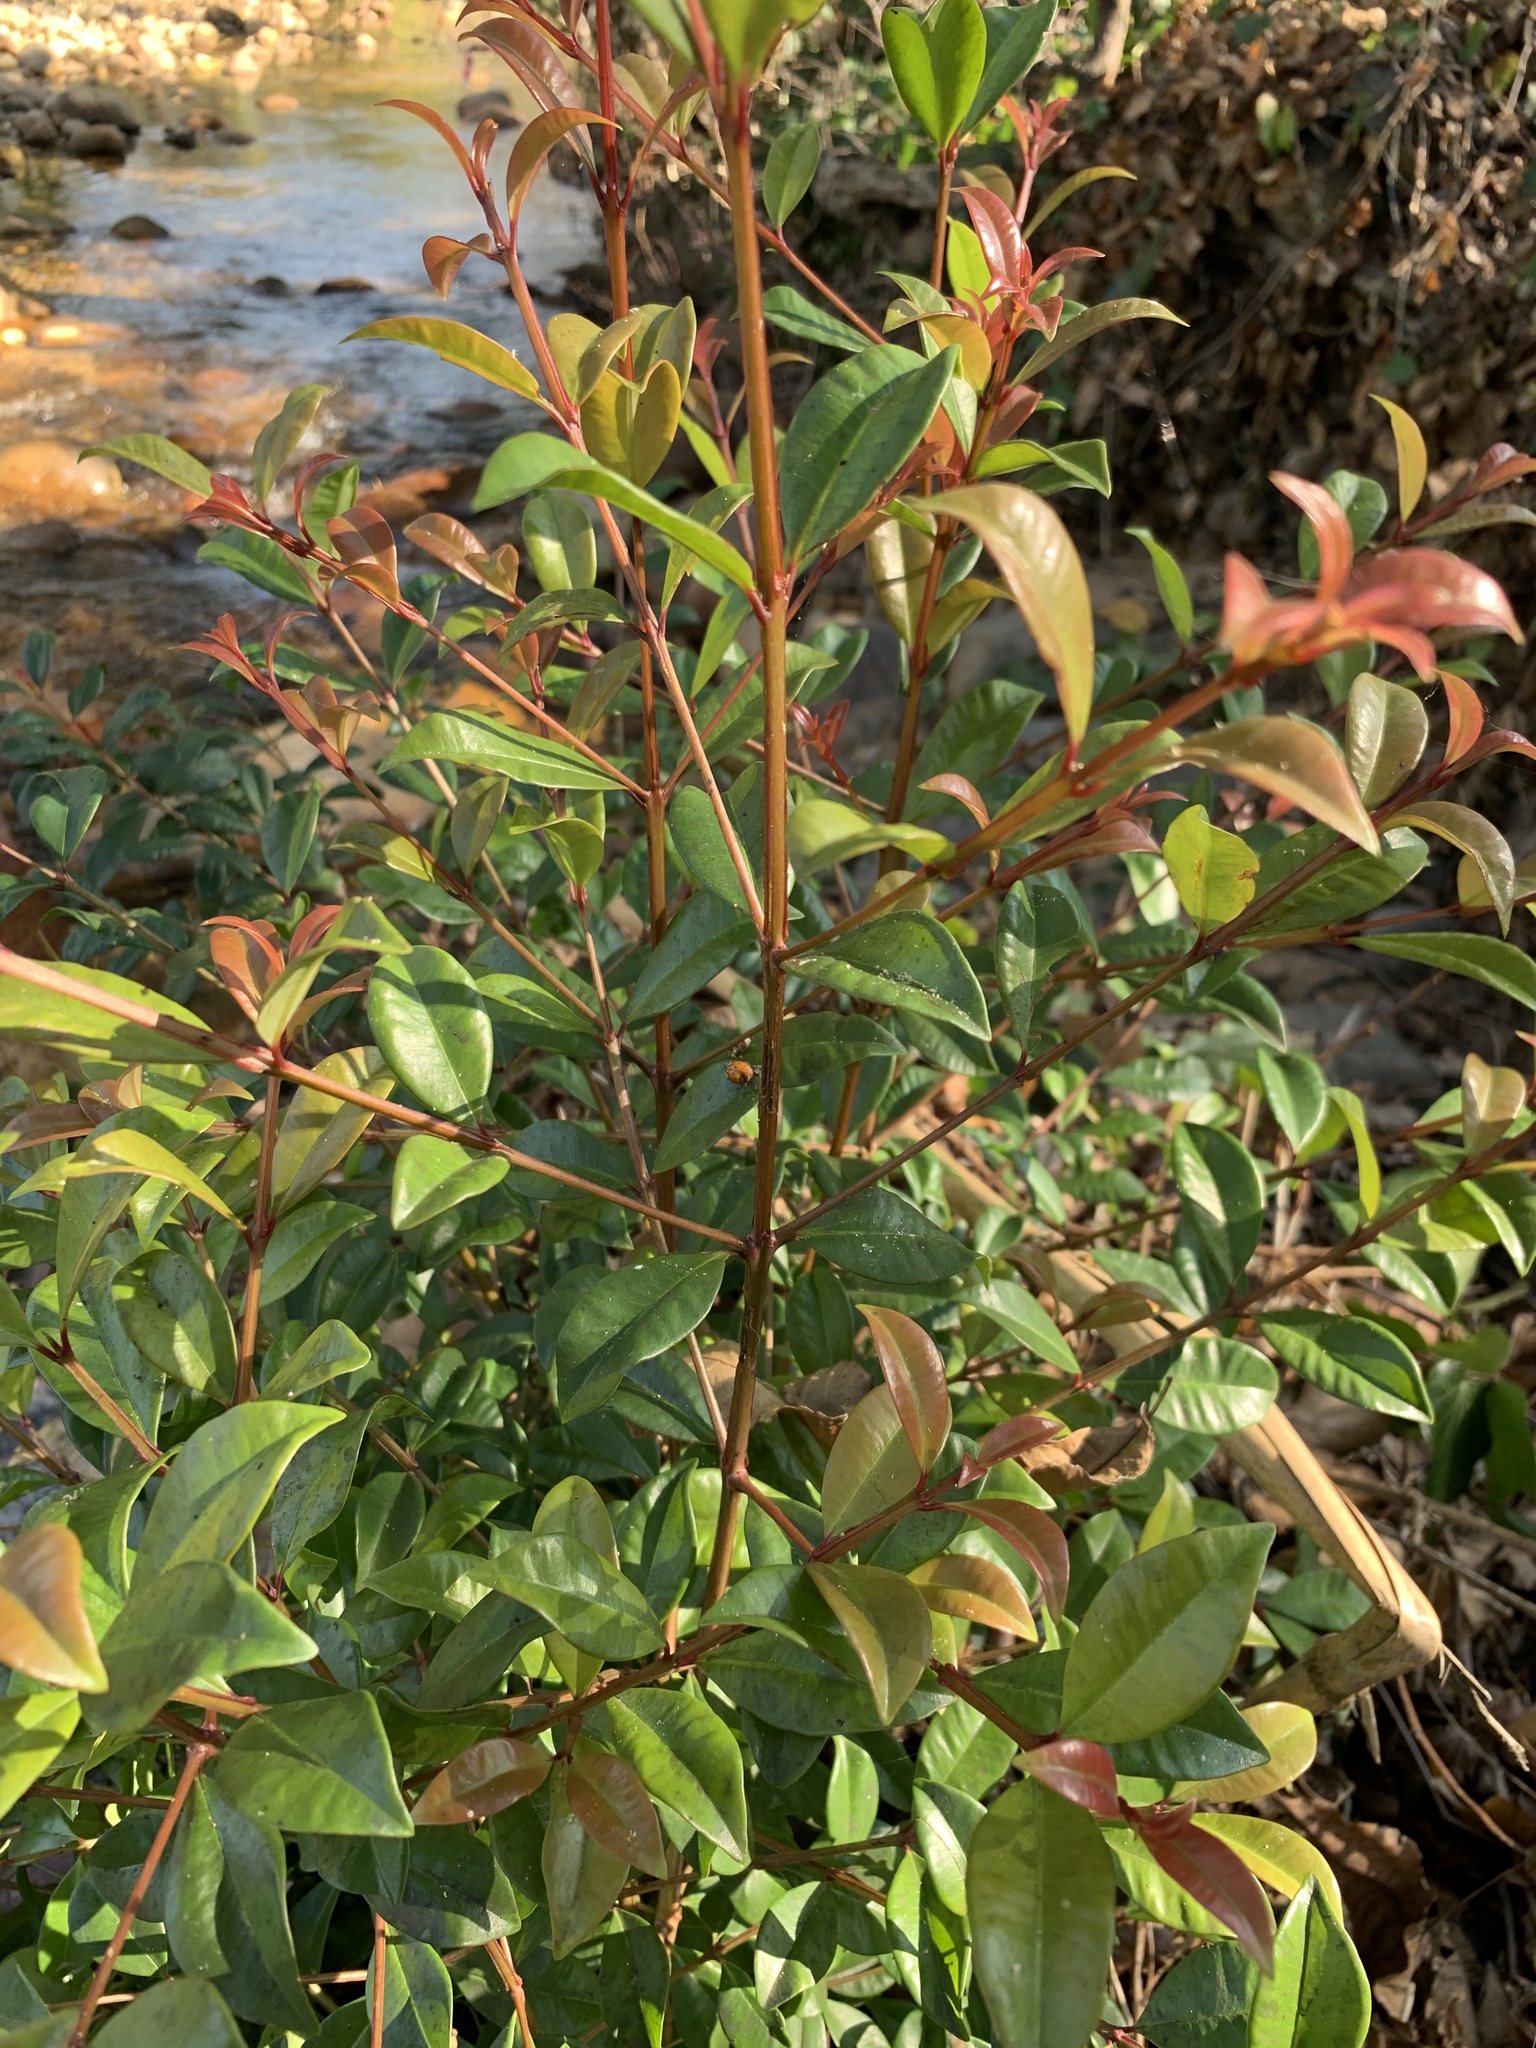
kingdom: Plantae
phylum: Tracheophyta
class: Magnoliopsida
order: Myrtales
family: Myrtaceae
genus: Syzygium
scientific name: Syzygium australe
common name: Australian brush-cherry
